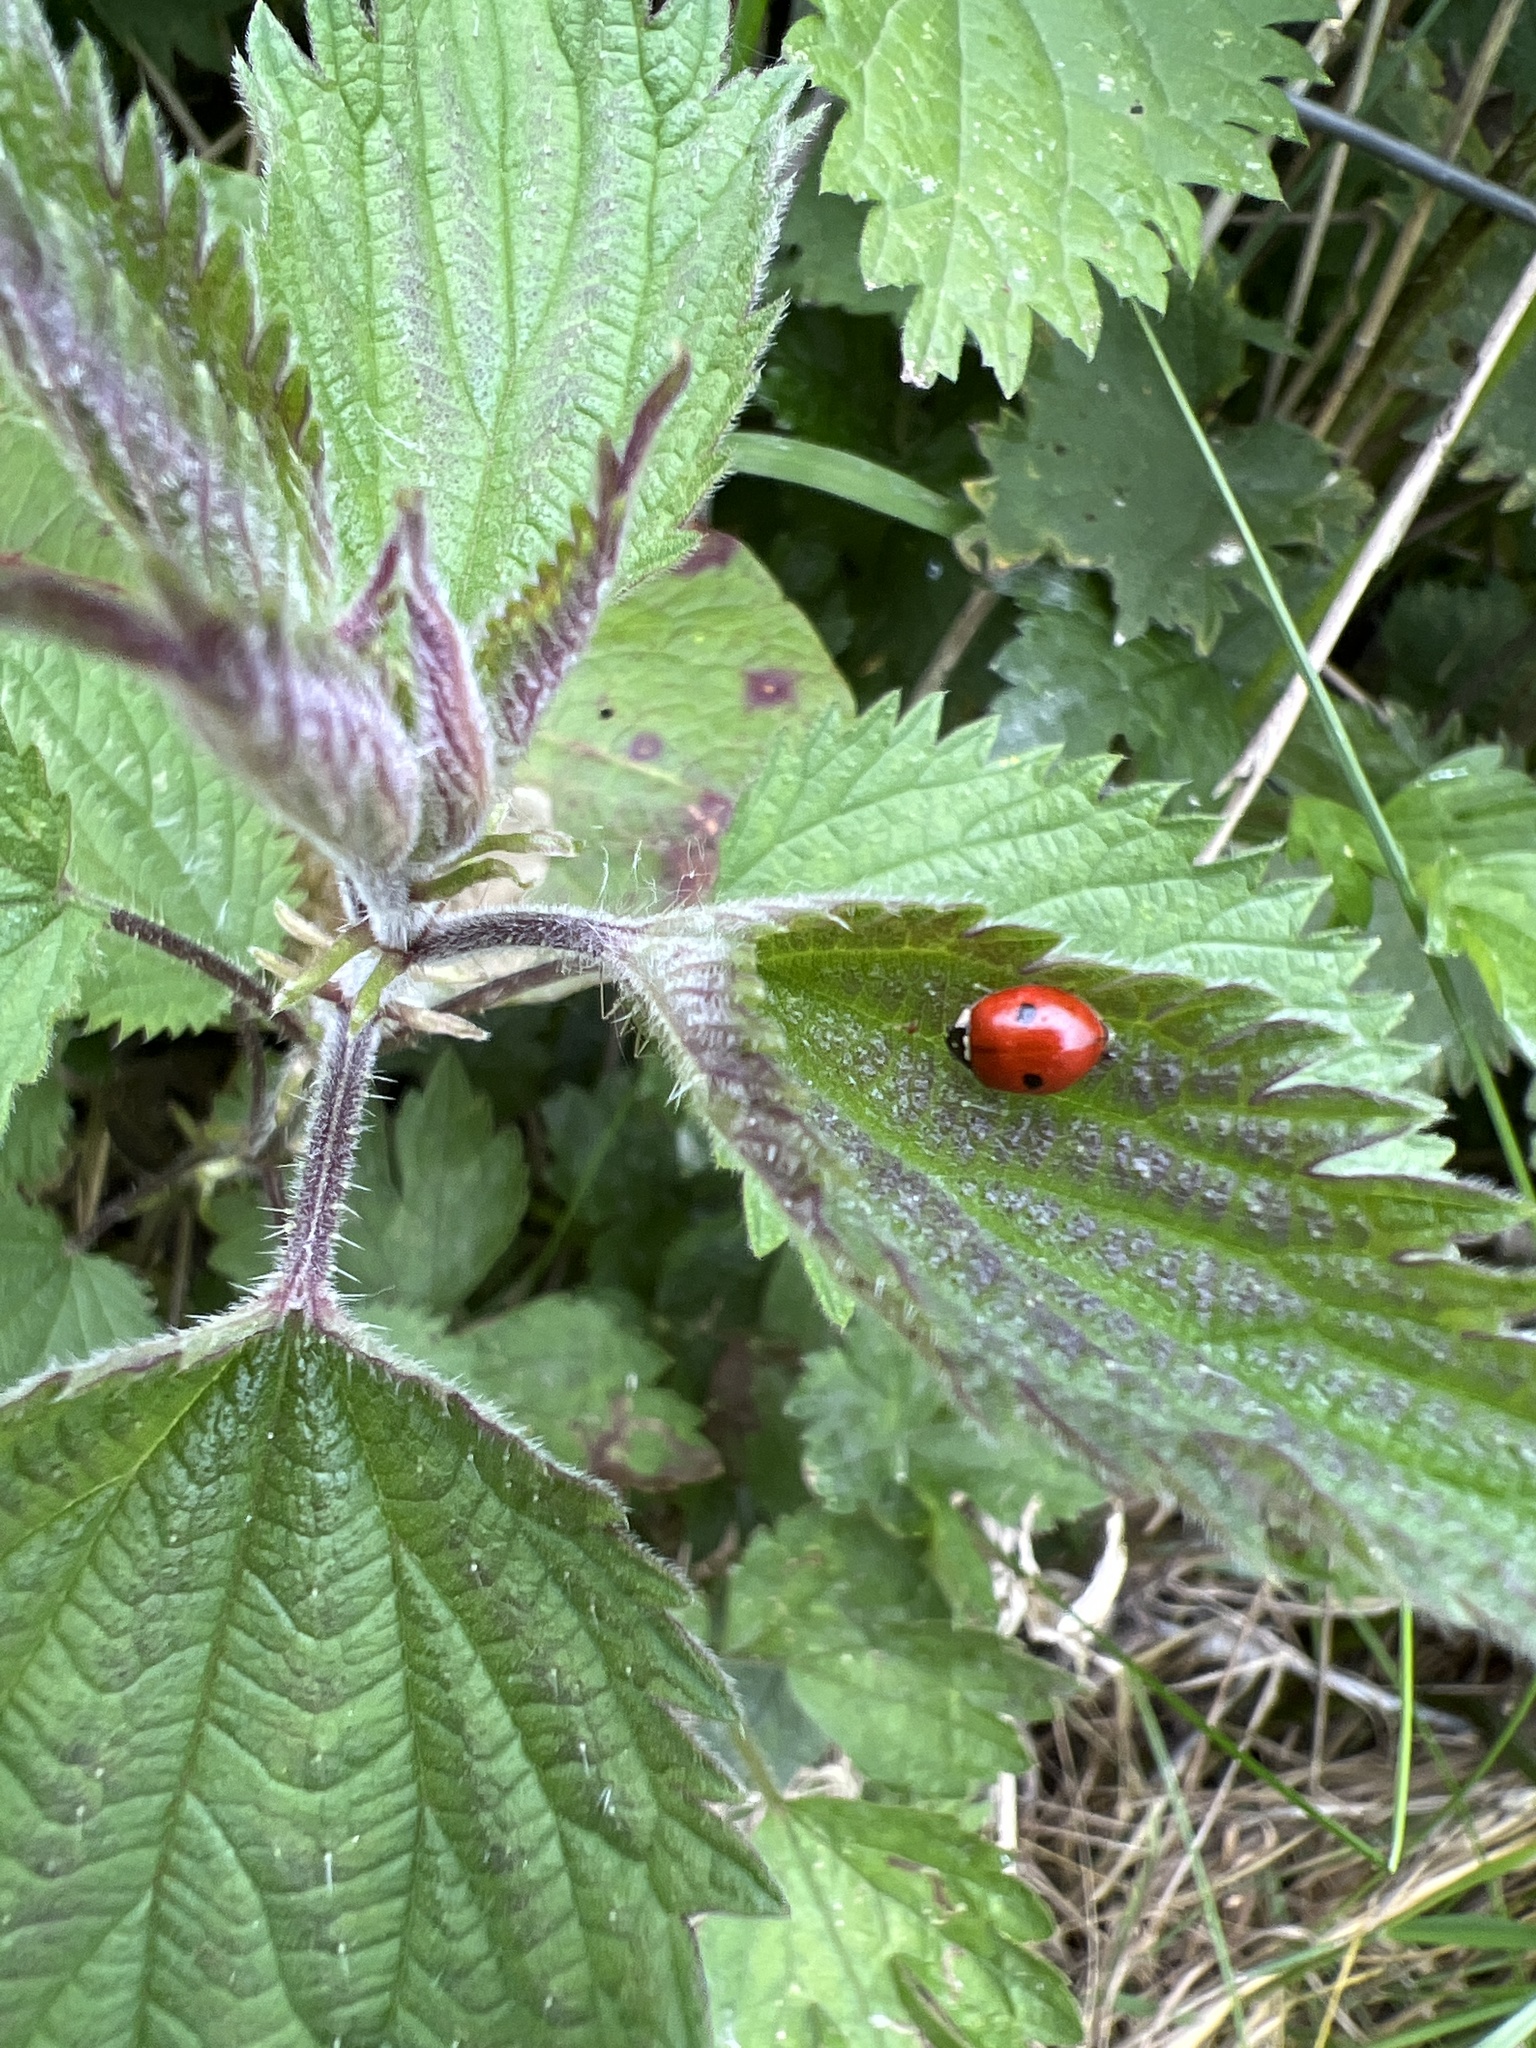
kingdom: Animalia
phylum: Arthropoda
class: Insecta
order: Coleoptera
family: Coccinellidae
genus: Adalia
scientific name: Adalia bipunctata
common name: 2-spot ladybird
